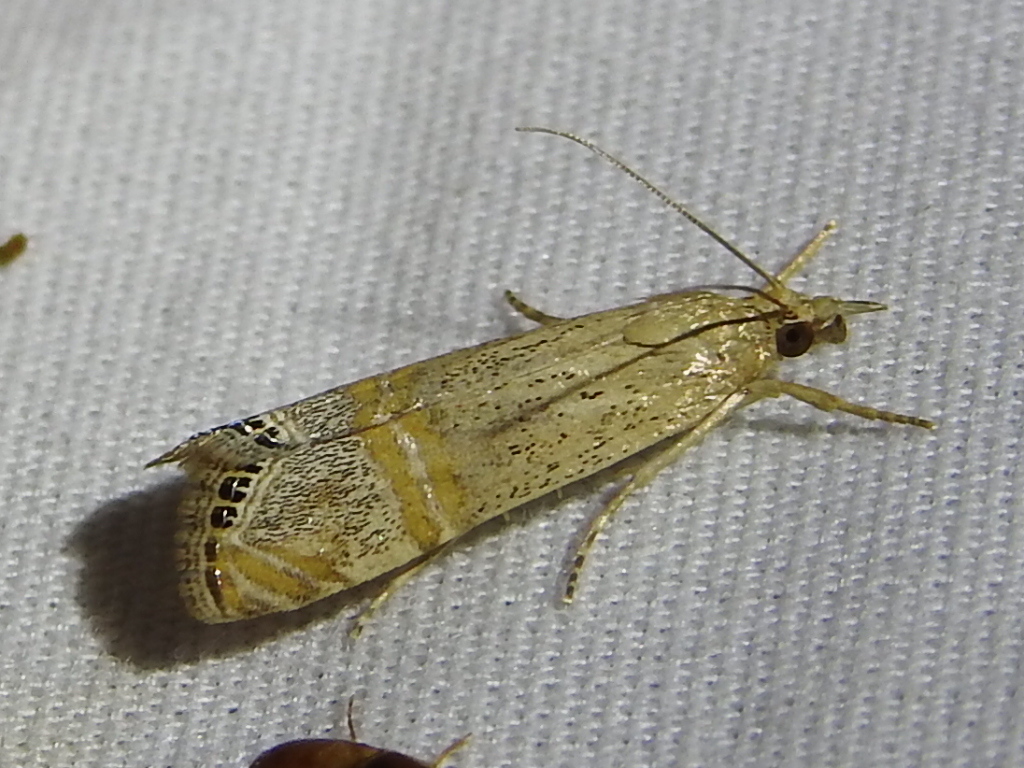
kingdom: Animalia
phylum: Arthropoda
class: Insecta
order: Lepidoptera
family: Crambidae
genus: Euchromius
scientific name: Euchromius ocellea
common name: Necklace veneer moth
